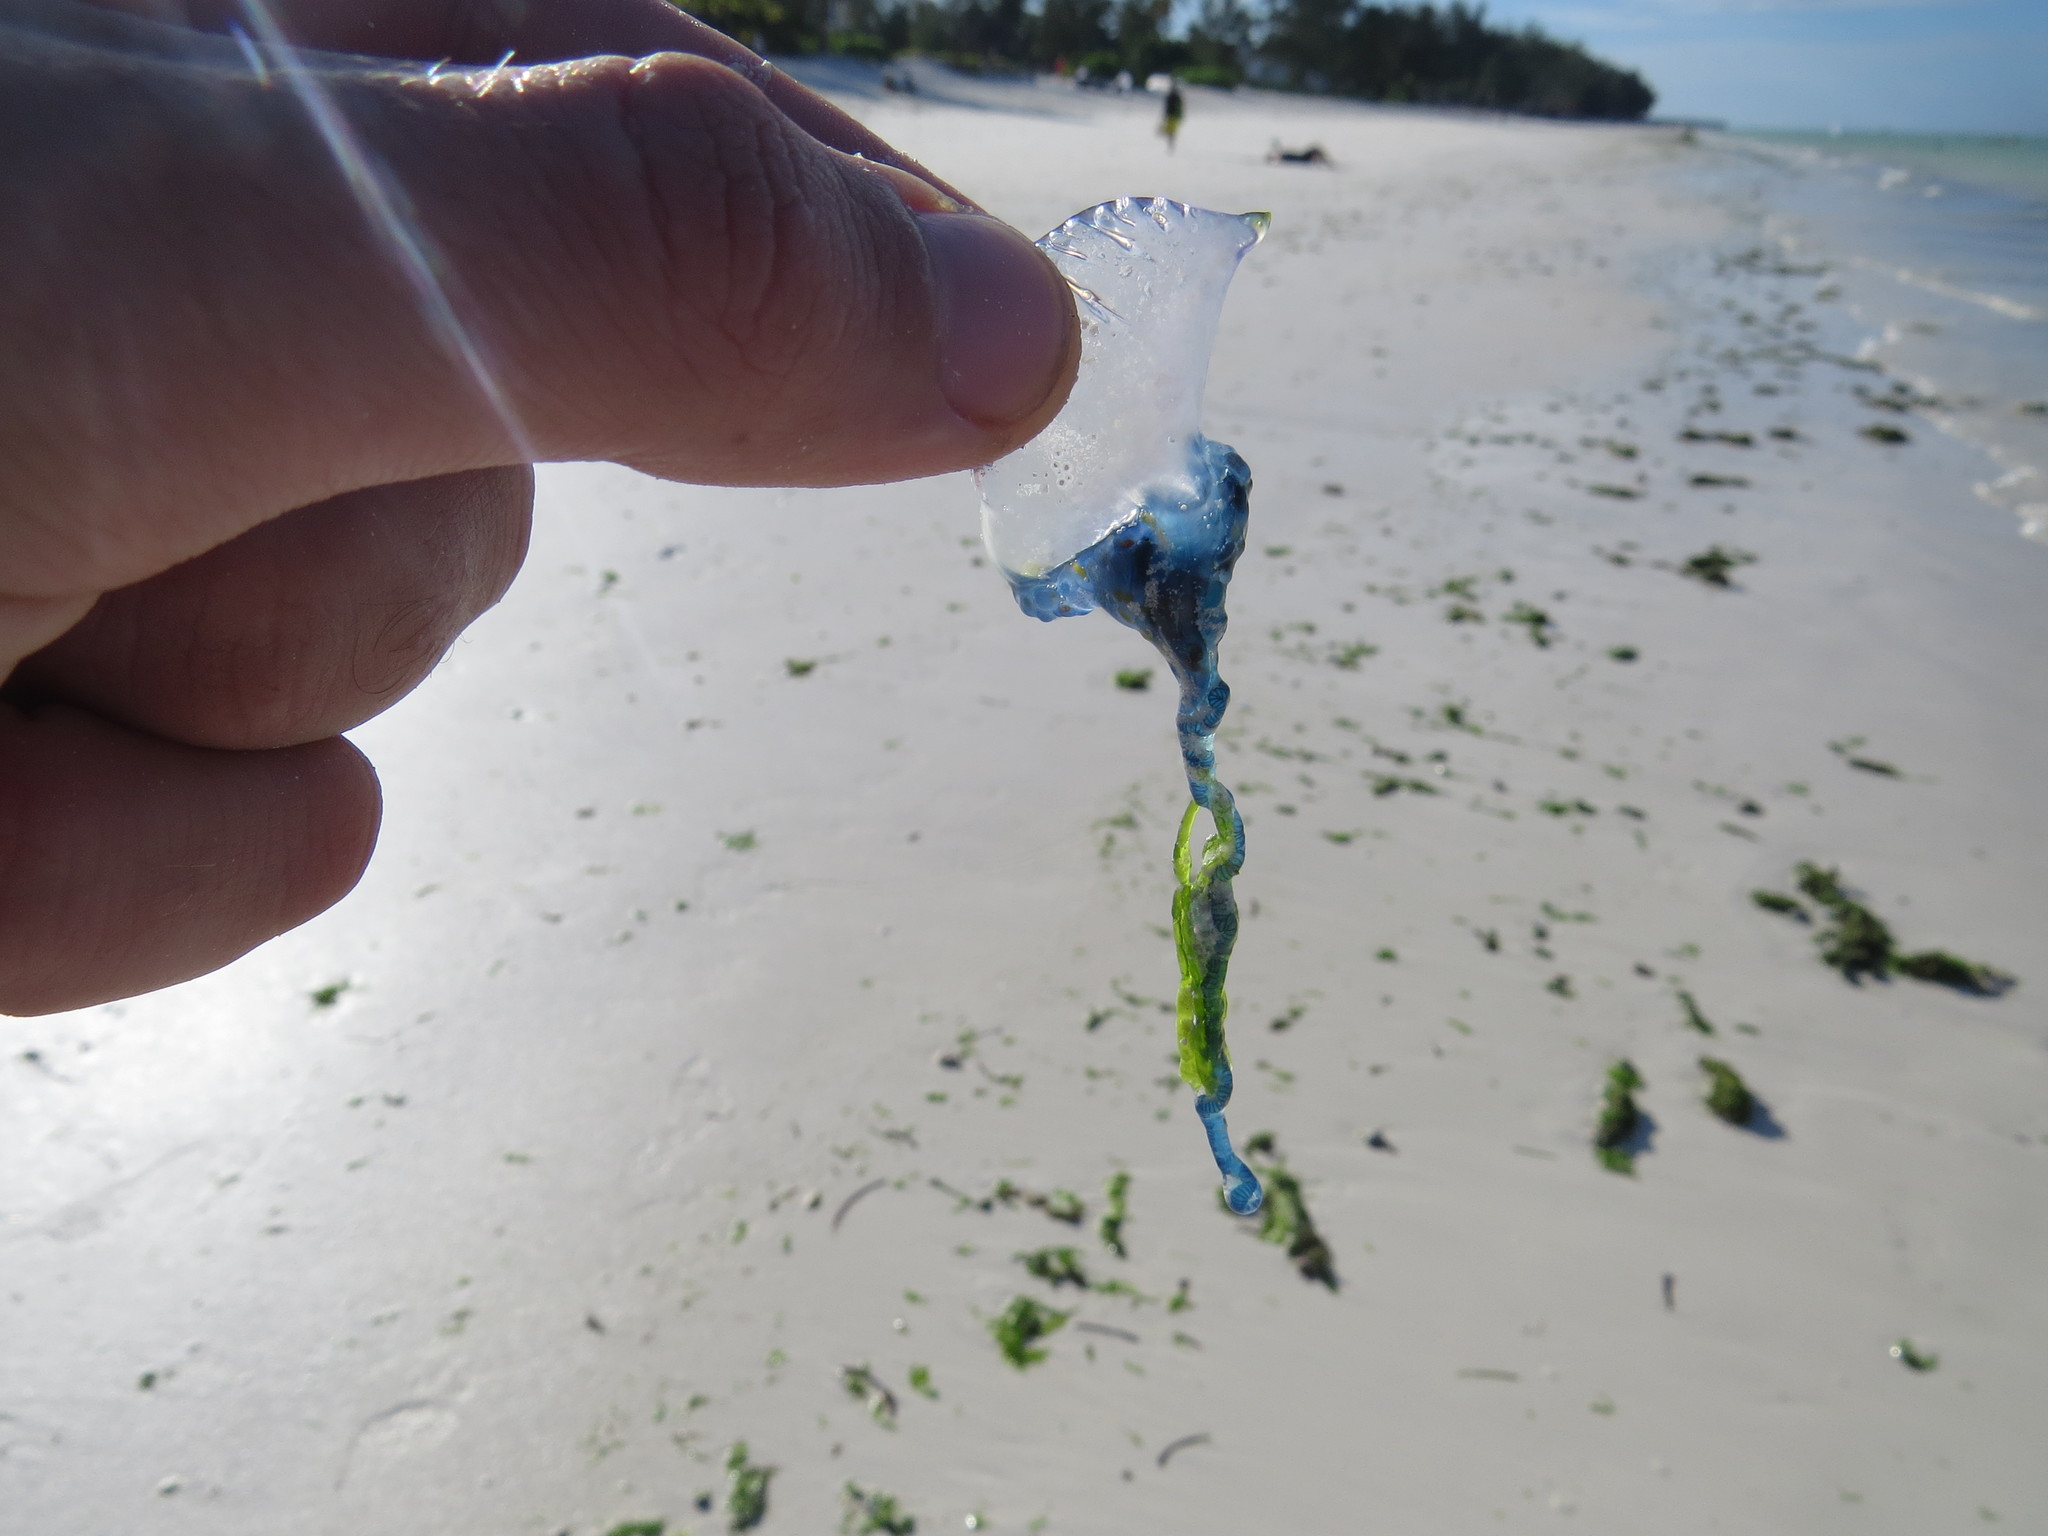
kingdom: Animalia
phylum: Cnidaria
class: Hydrozoa
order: Siphonophorae
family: Physaliidae
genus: Physalia
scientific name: Physalia physalis
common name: Portuguese man-of-war
